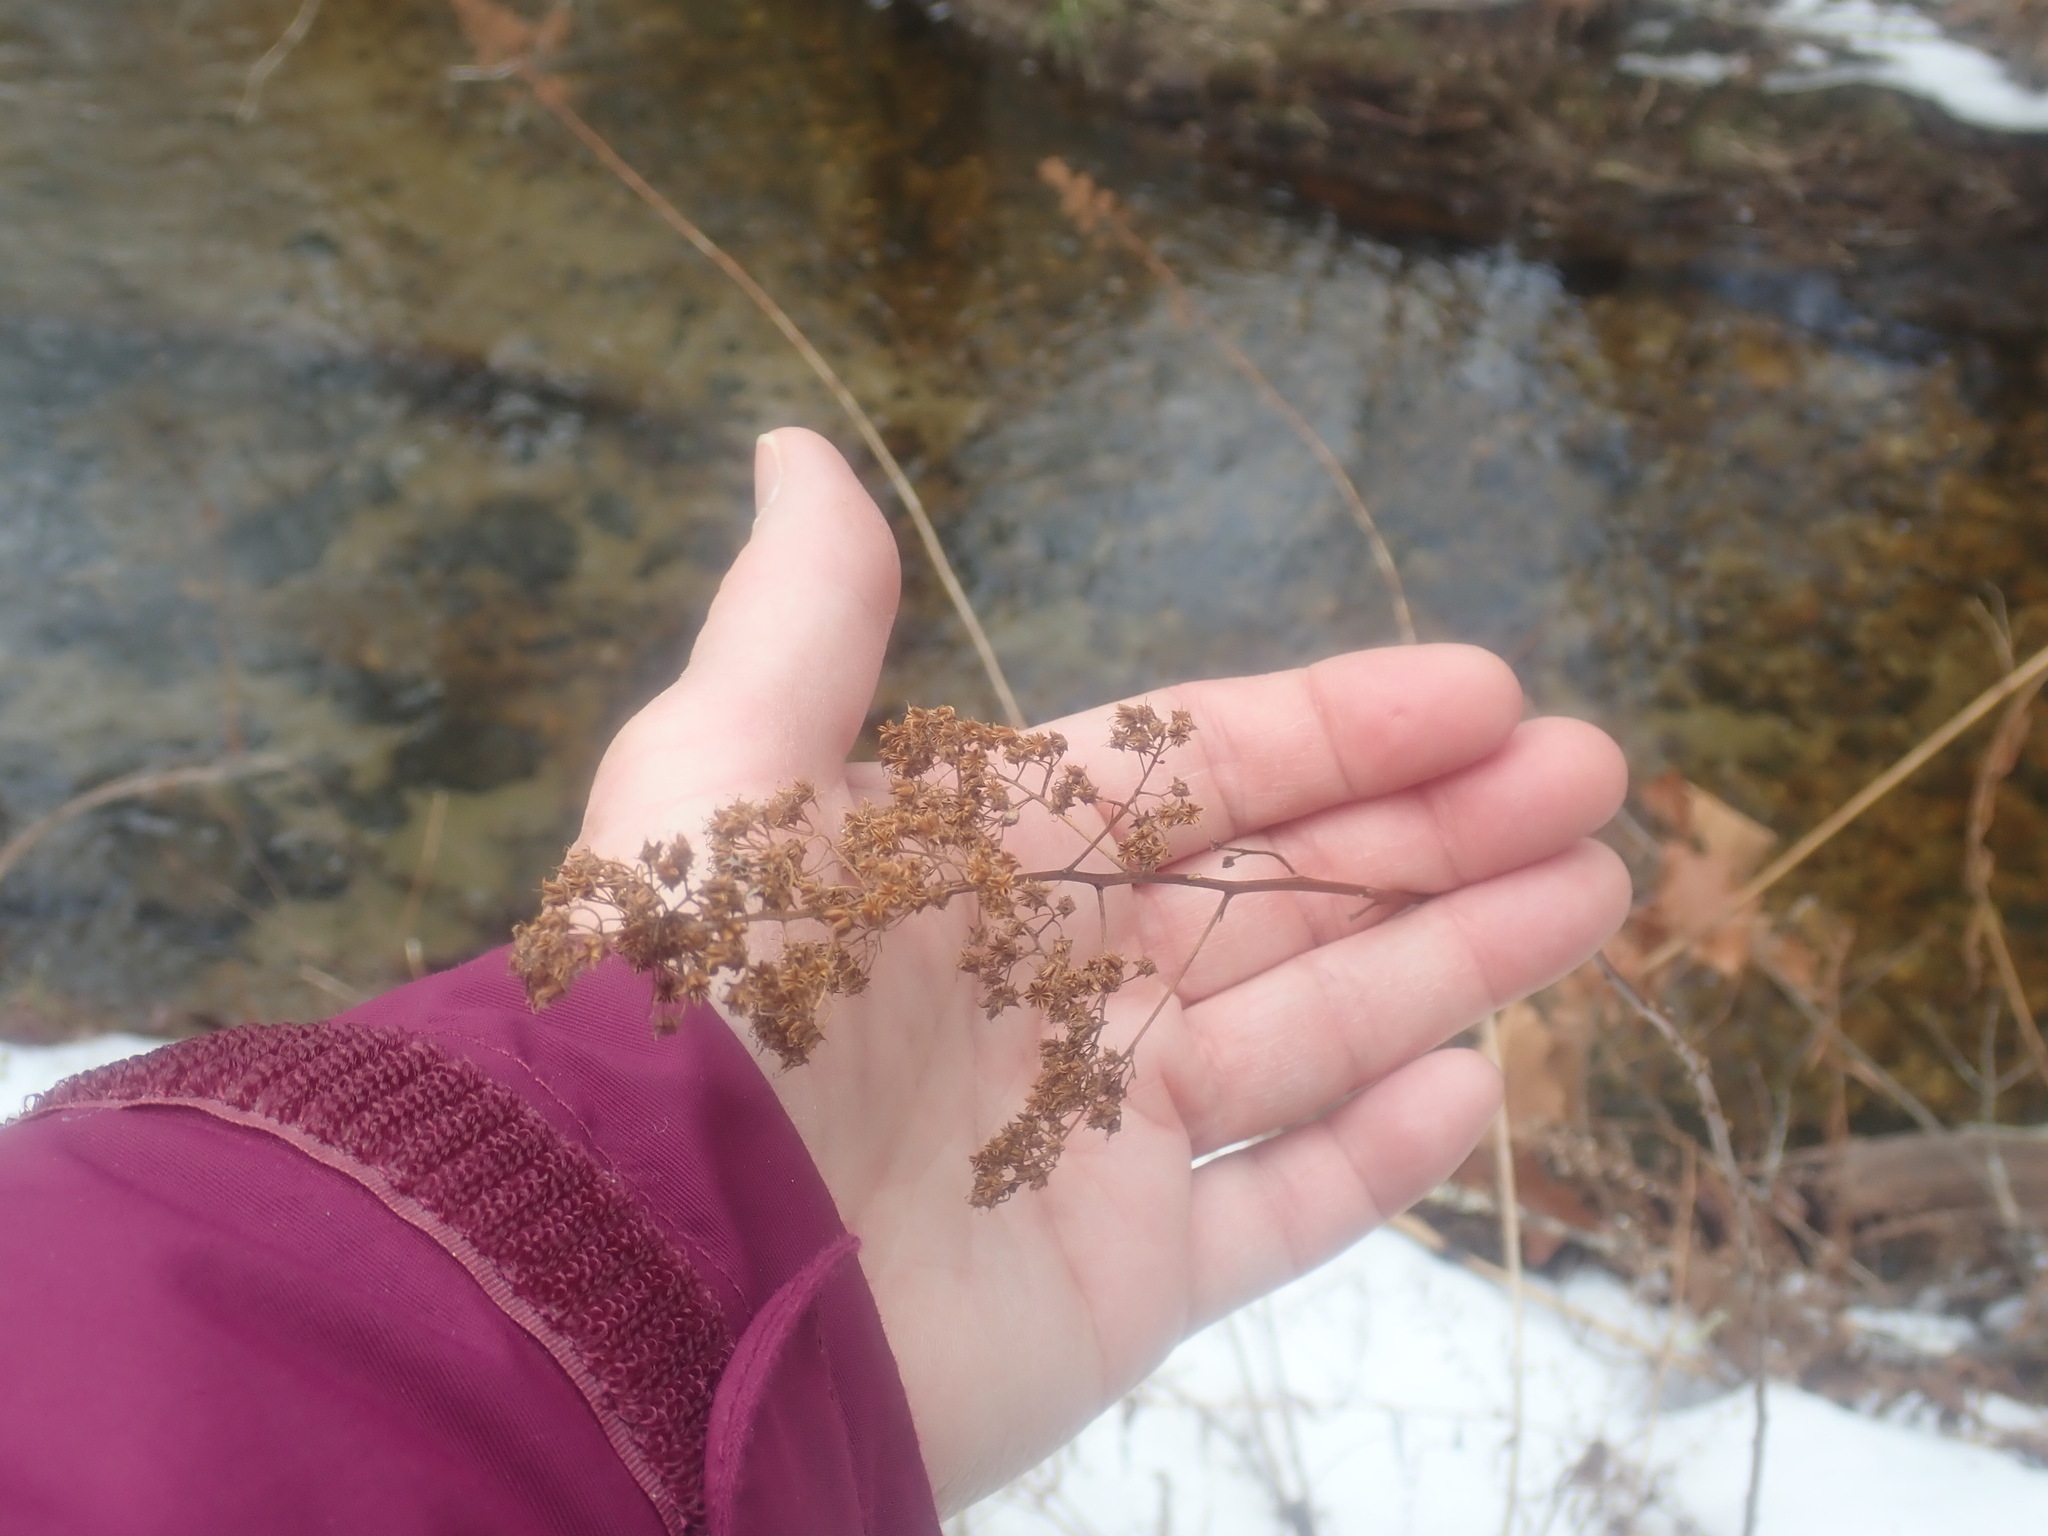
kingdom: Plantae
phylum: Tracheophyta
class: Magnoliopsida
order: Rosales
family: Rosaceae
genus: Spiraea
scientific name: Spiraea alba
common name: Pale bridewort
